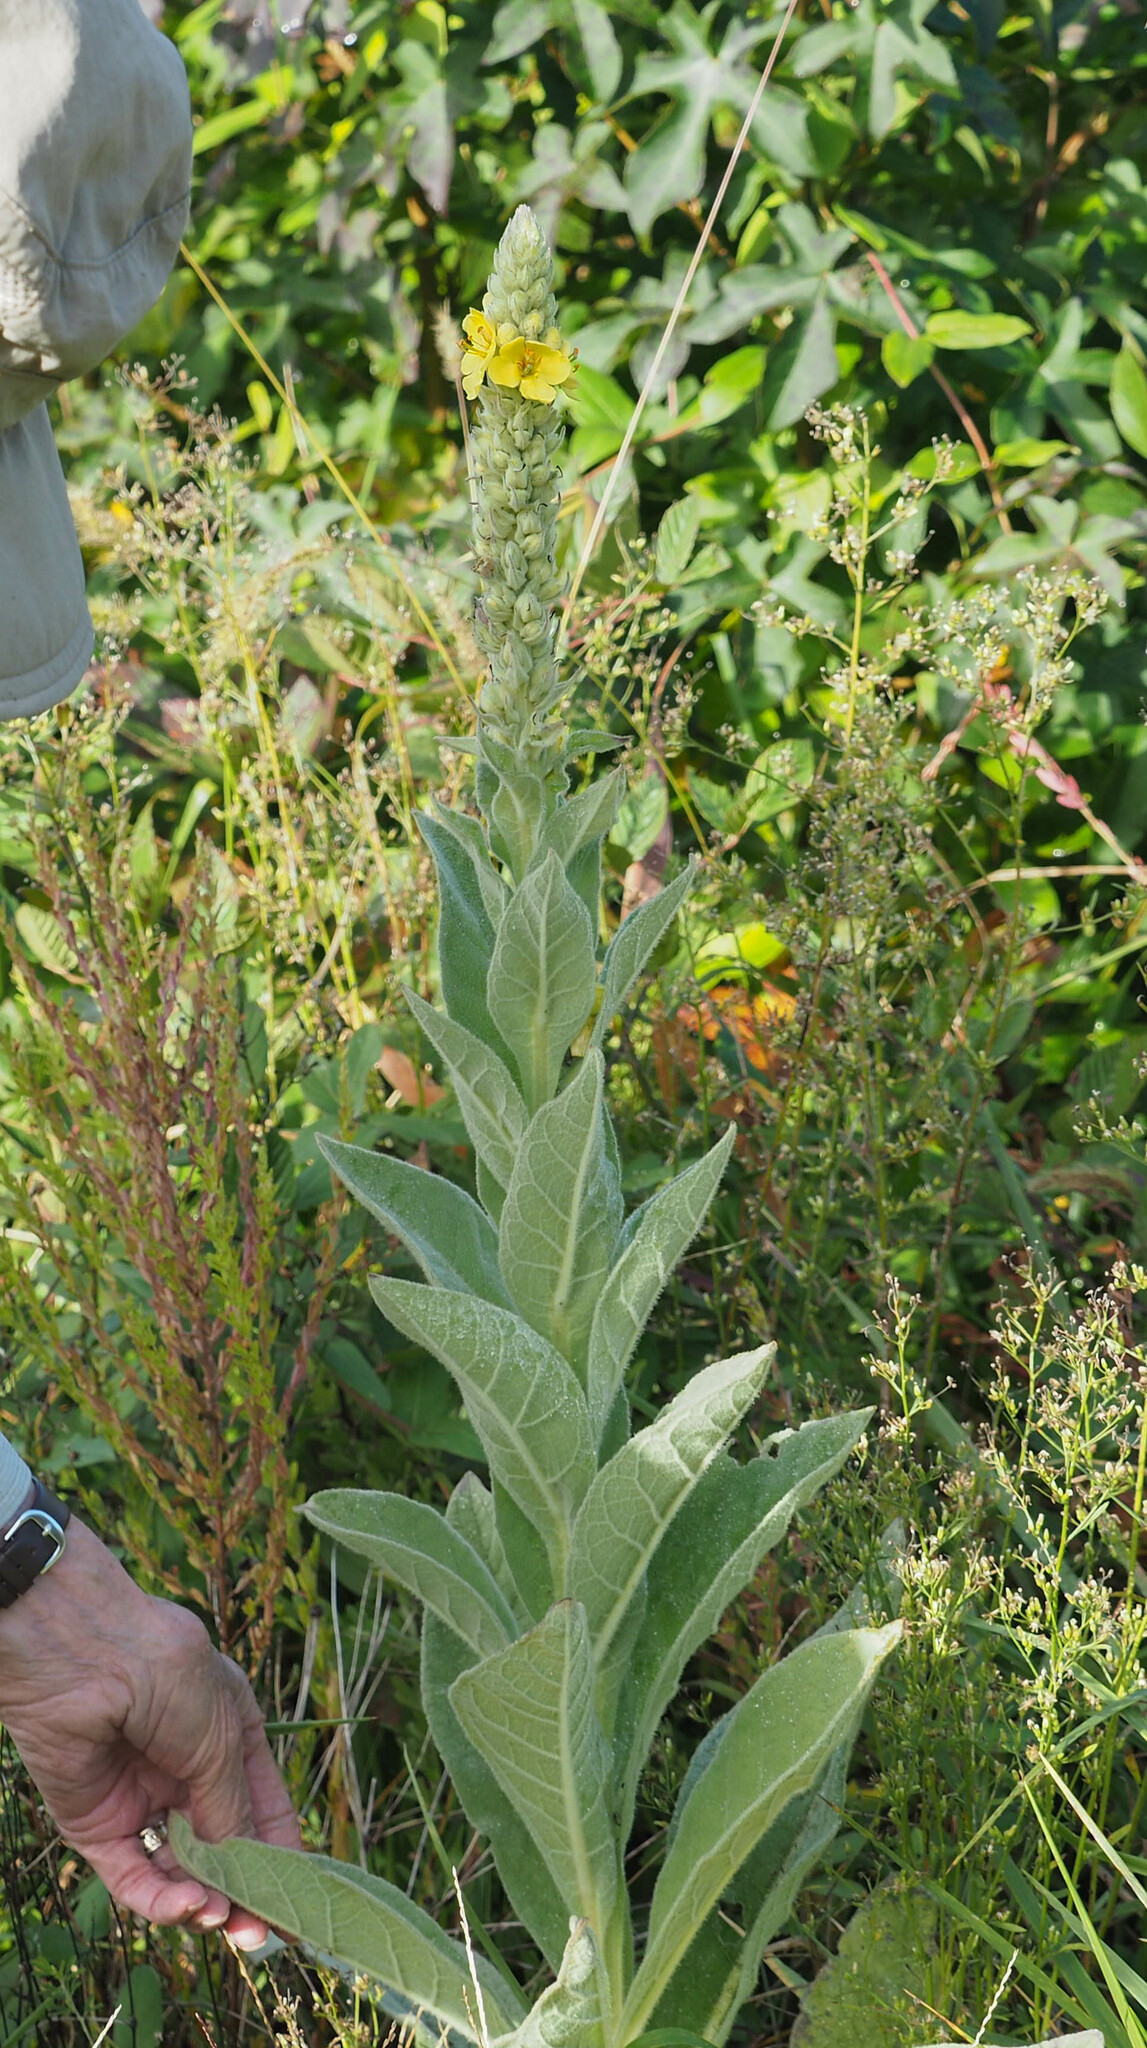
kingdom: Plantae
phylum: Tracheophyta
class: Magnoliopsida
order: Lamiales
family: Scrophulariaceae
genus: Verbascum
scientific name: Verbascum thapsus
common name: Common mullein
